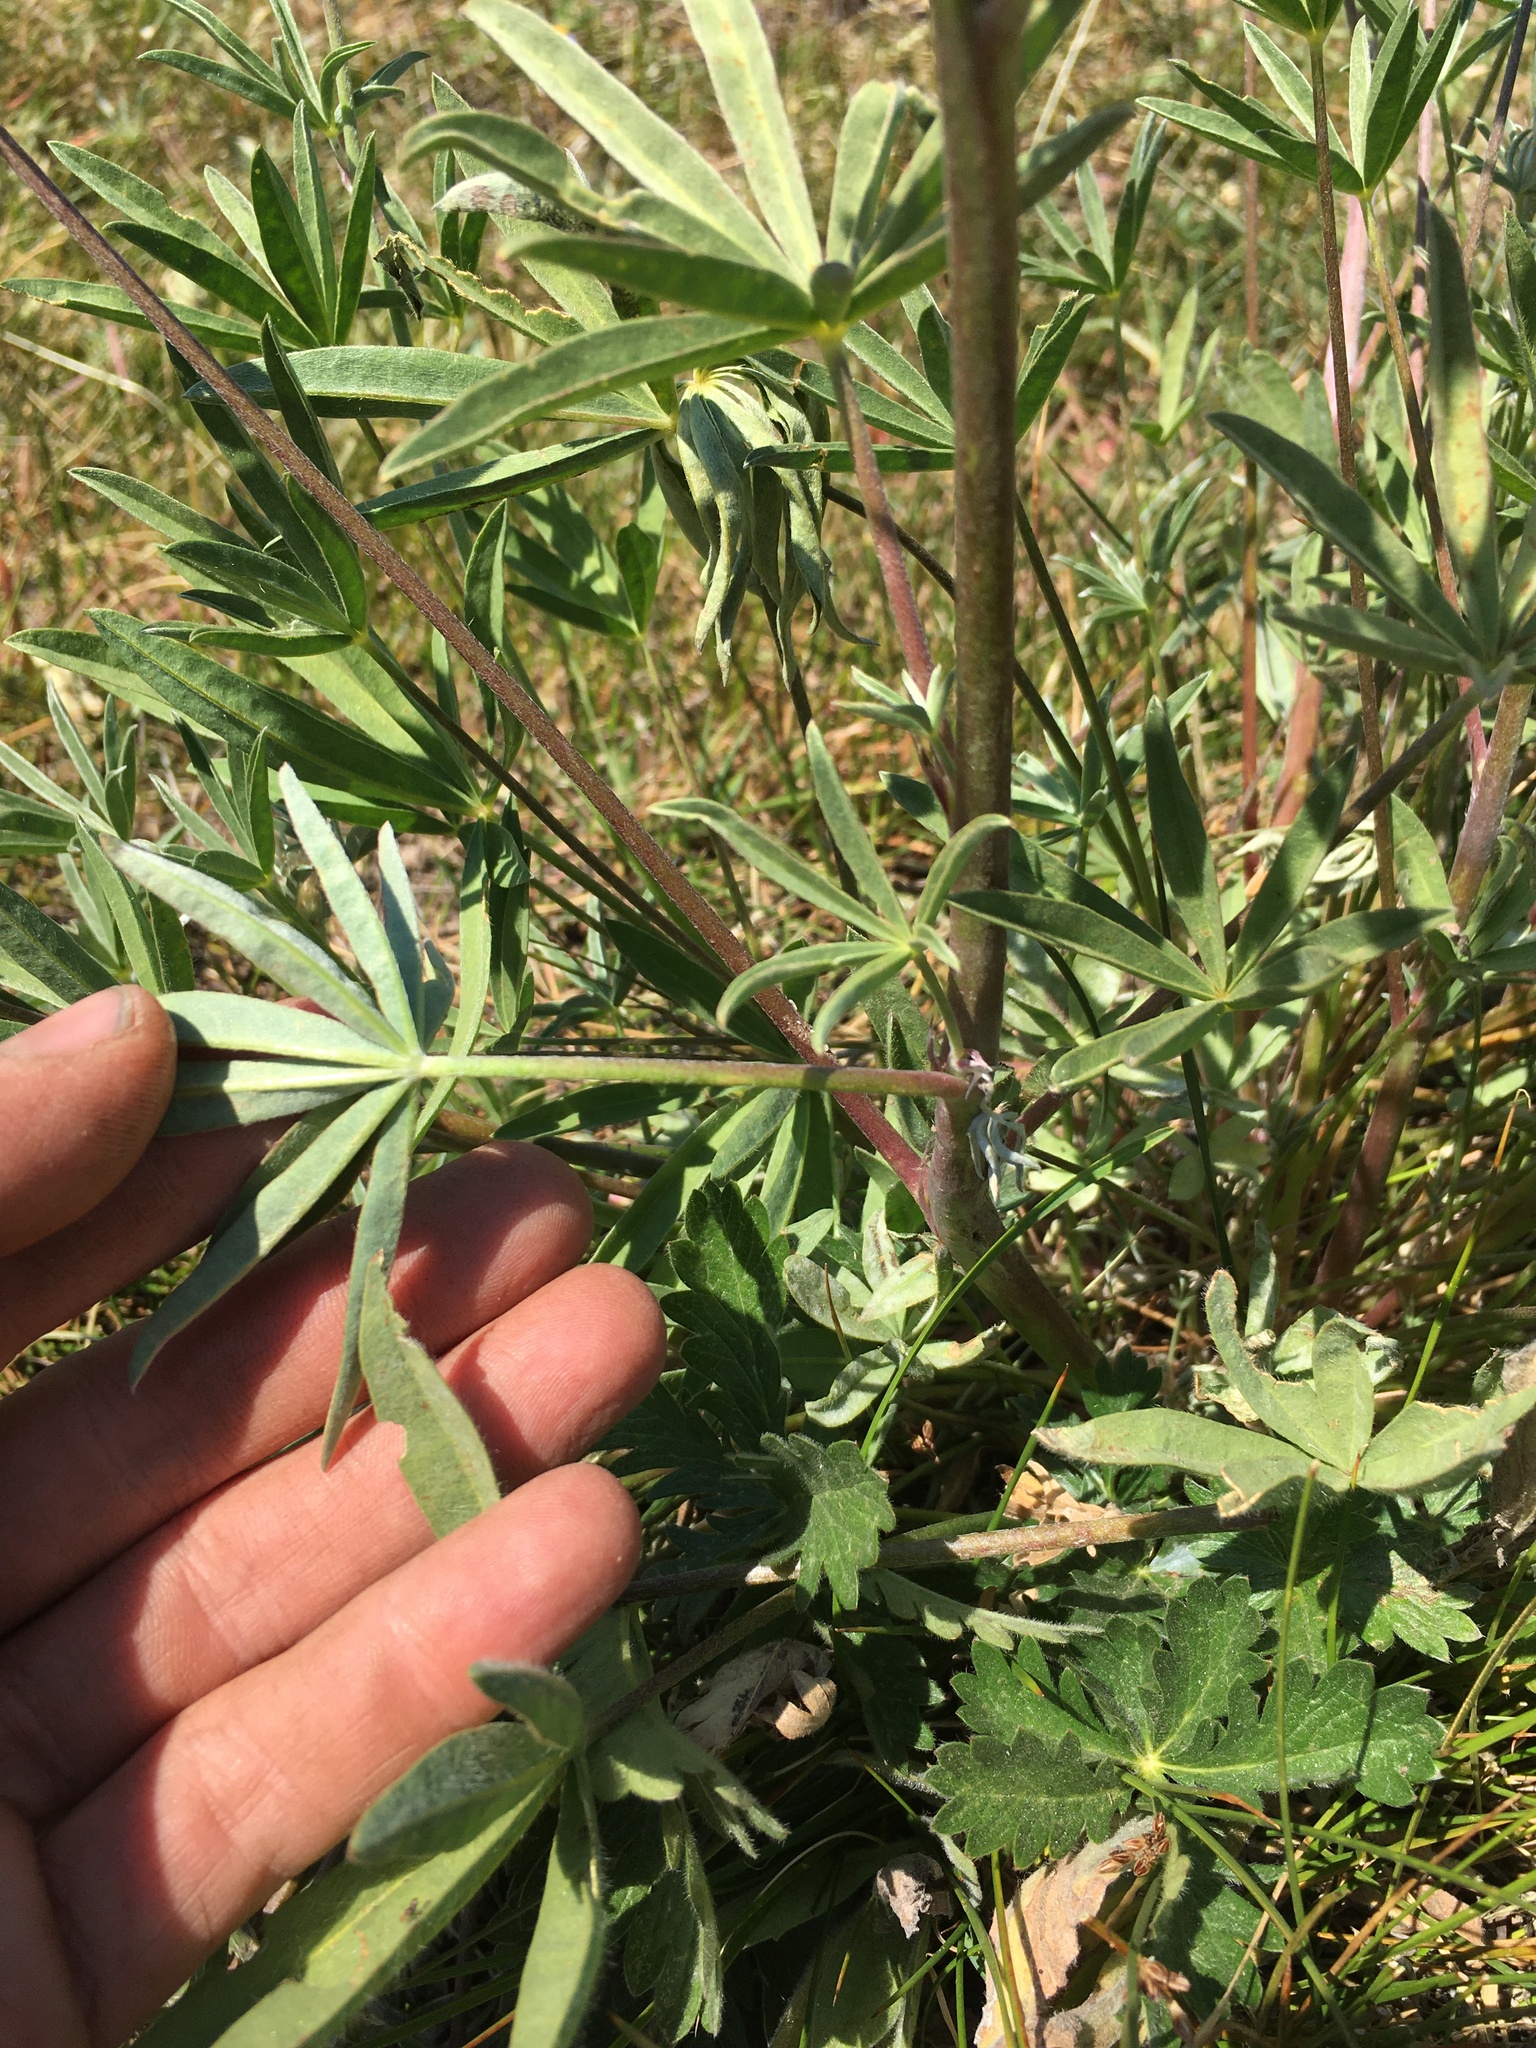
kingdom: Plantae
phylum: Tracheophyta
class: Magnoliopsida
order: Fabales
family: Fabaceae
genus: Lupinus
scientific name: Lupinus pratensis
